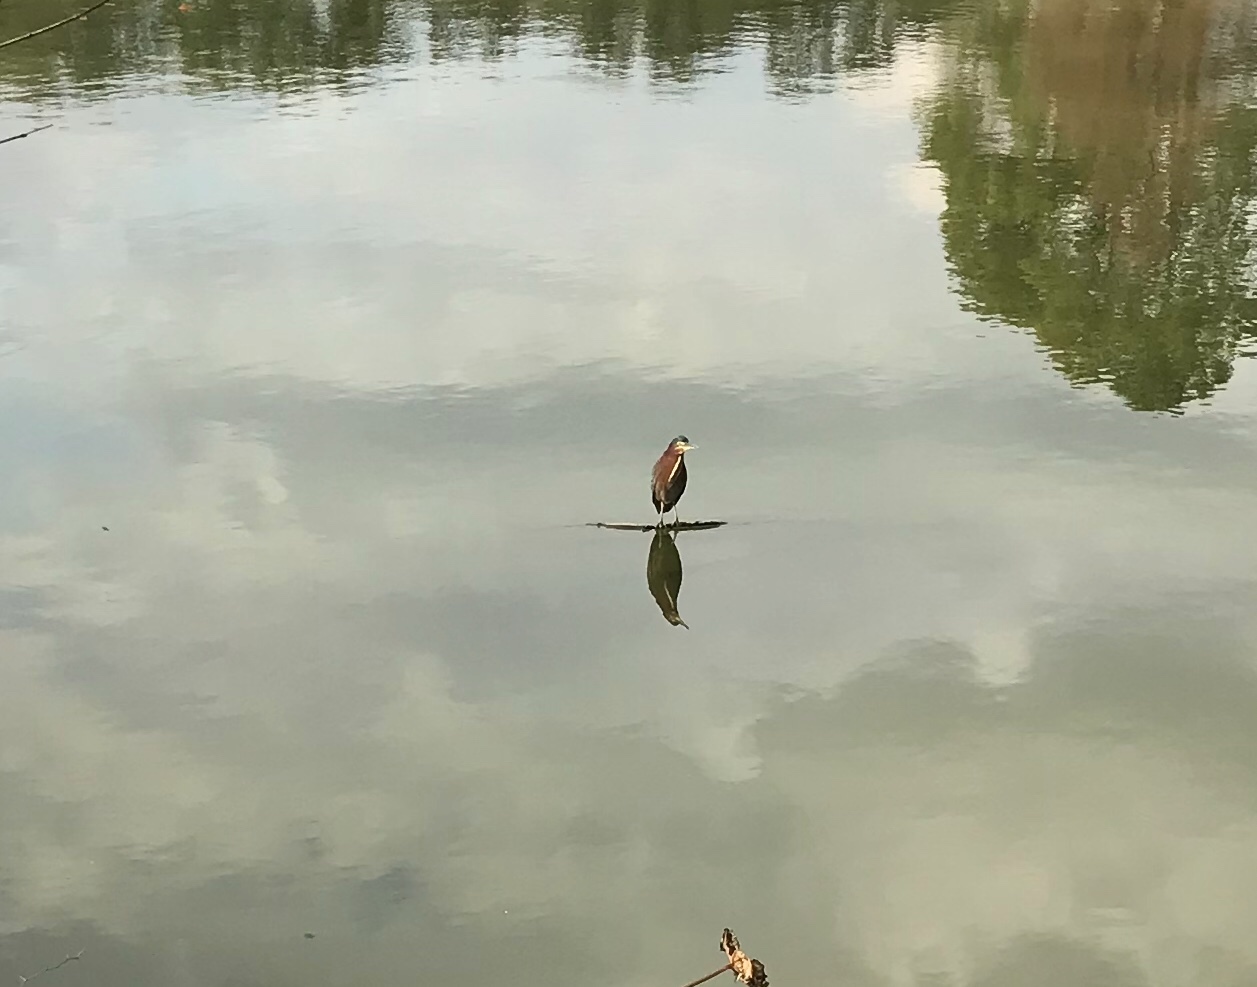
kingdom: Animalia
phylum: Chordata
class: Aves
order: Pelecaniformes
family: Ardeidae
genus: Butorides
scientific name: Butorides virescens
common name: Green heron
